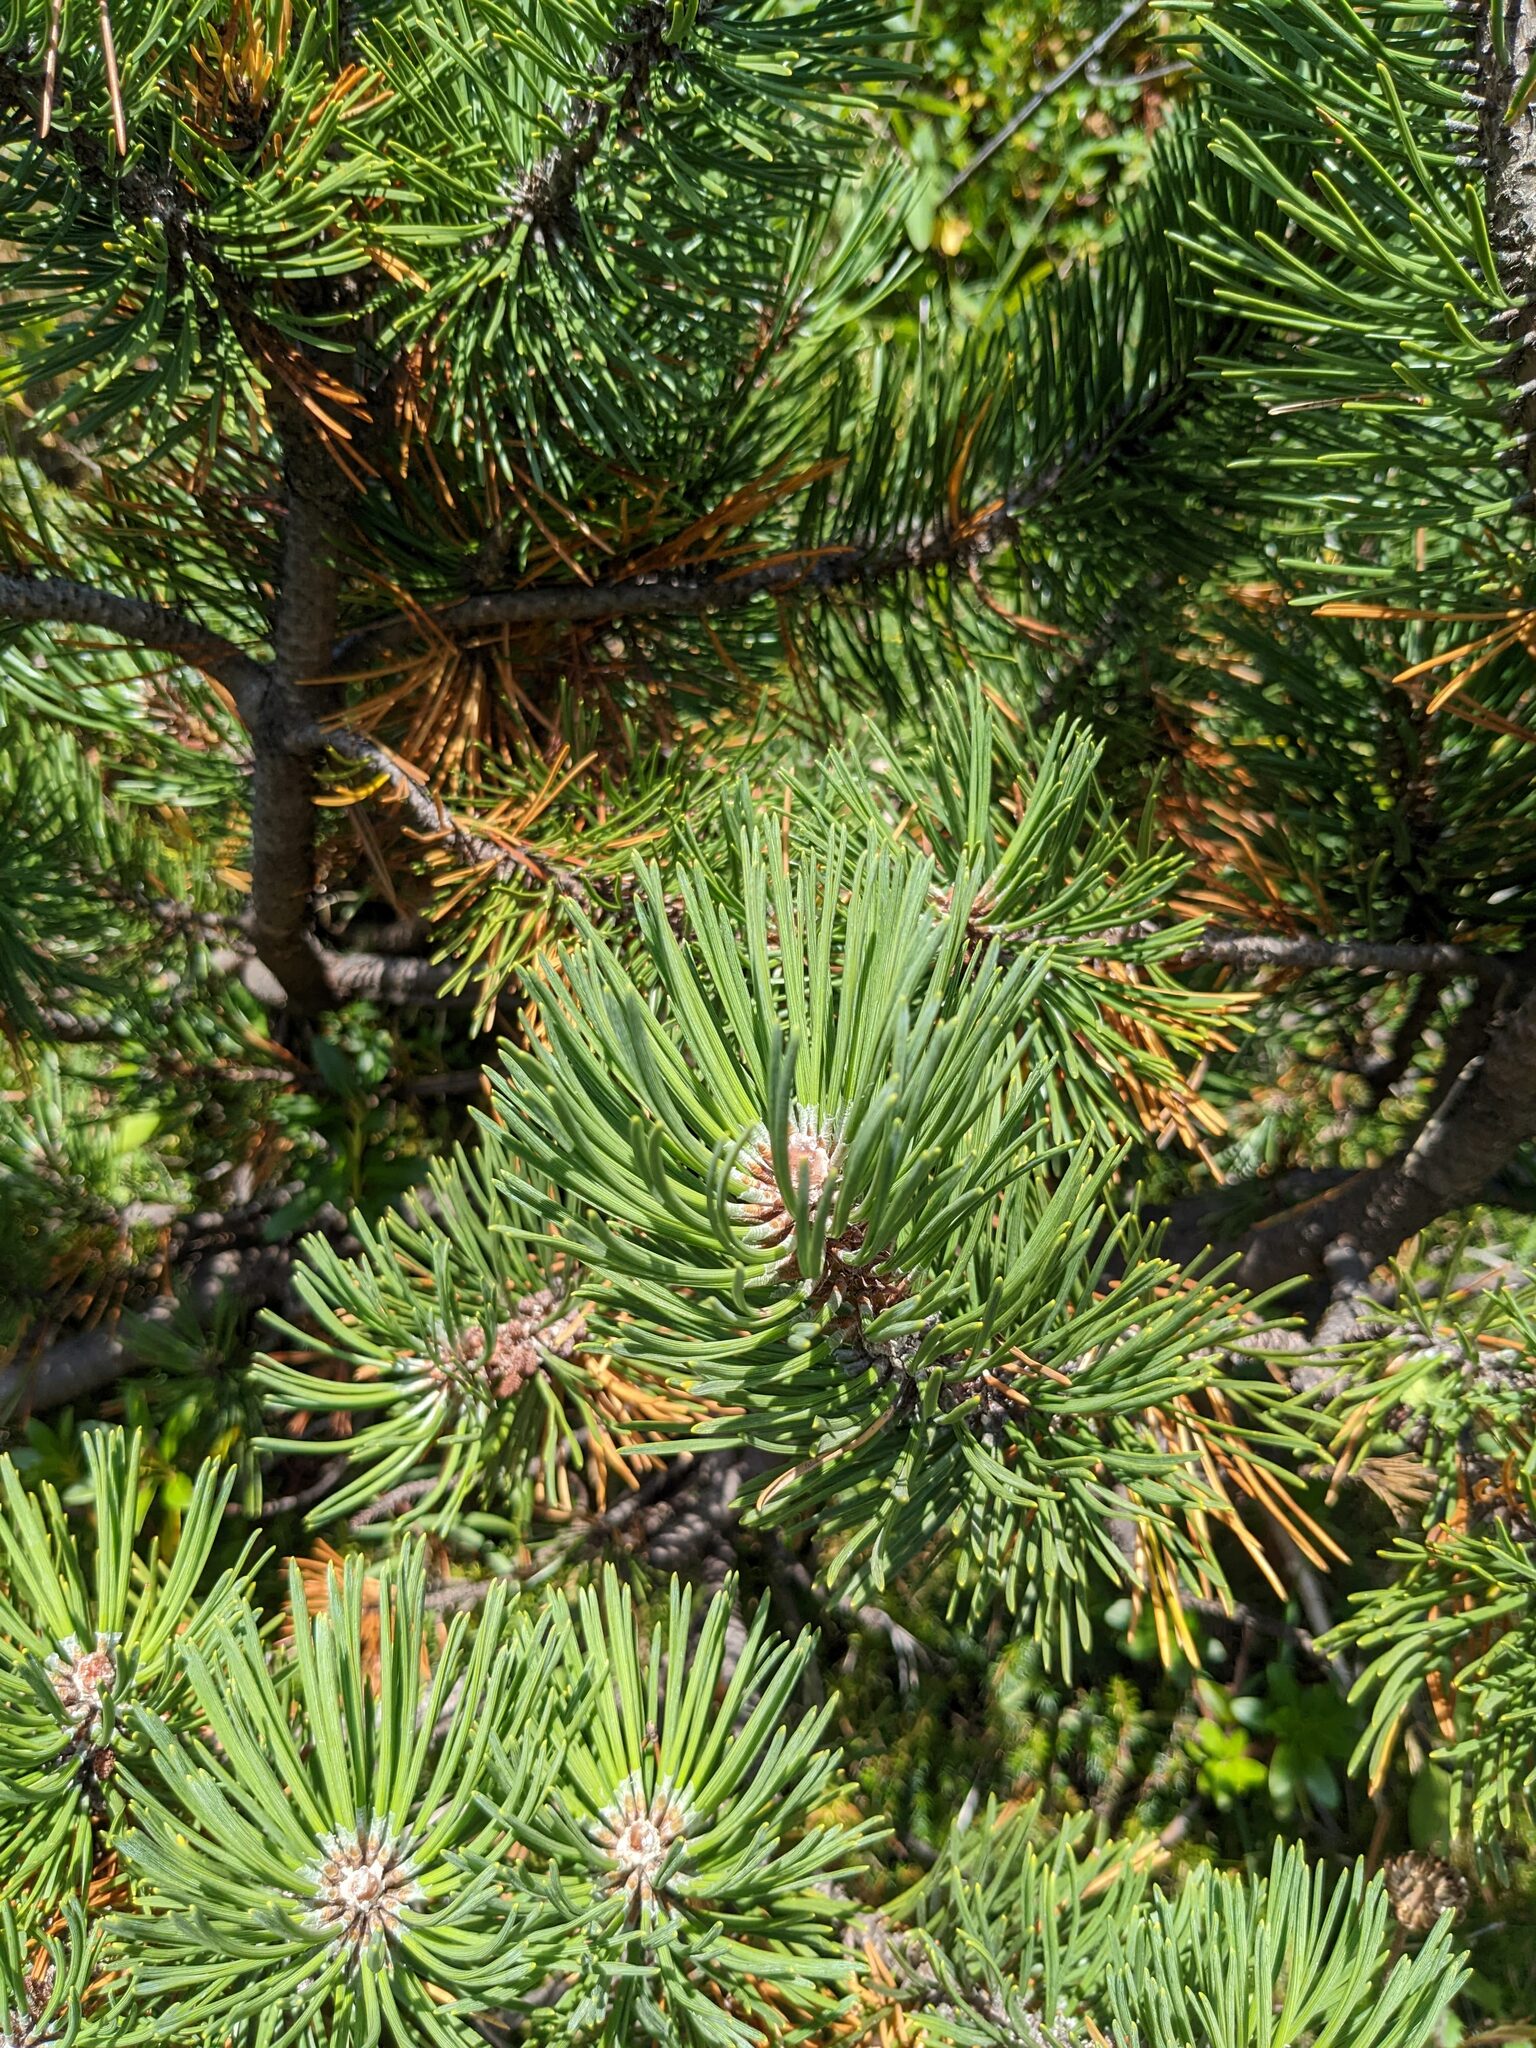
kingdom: Plantae
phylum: Tracheophyta
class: Pinopsida
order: Pinales
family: Pinaceae
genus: Pinus
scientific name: Pinus mugo
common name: Mugo pine
